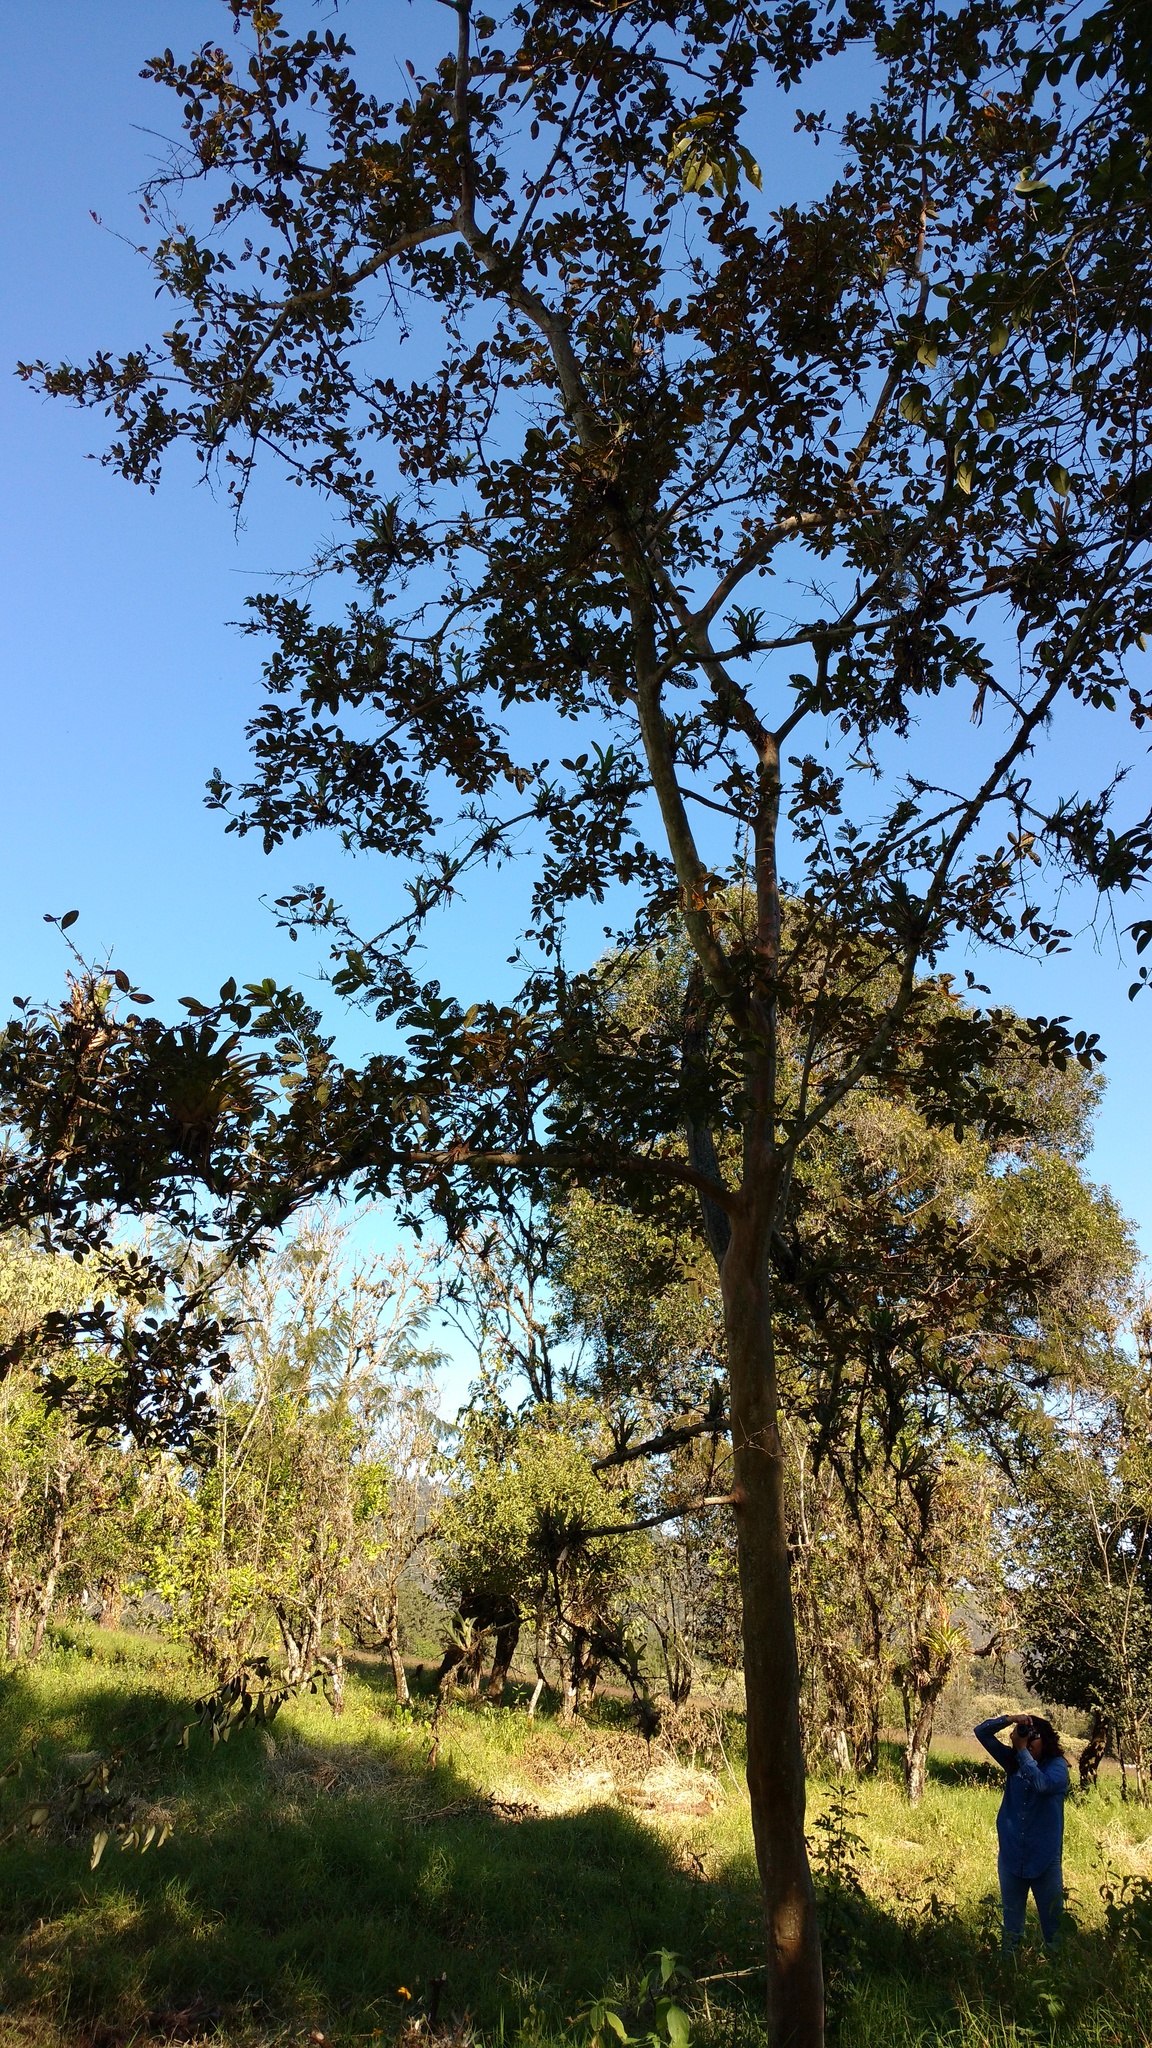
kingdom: Plantae
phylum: Tracheophyta
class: Magnoliopsida
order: Myrtales
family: Myrtaceae
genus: Psidium
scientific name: Psidium guajava
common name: Guava
